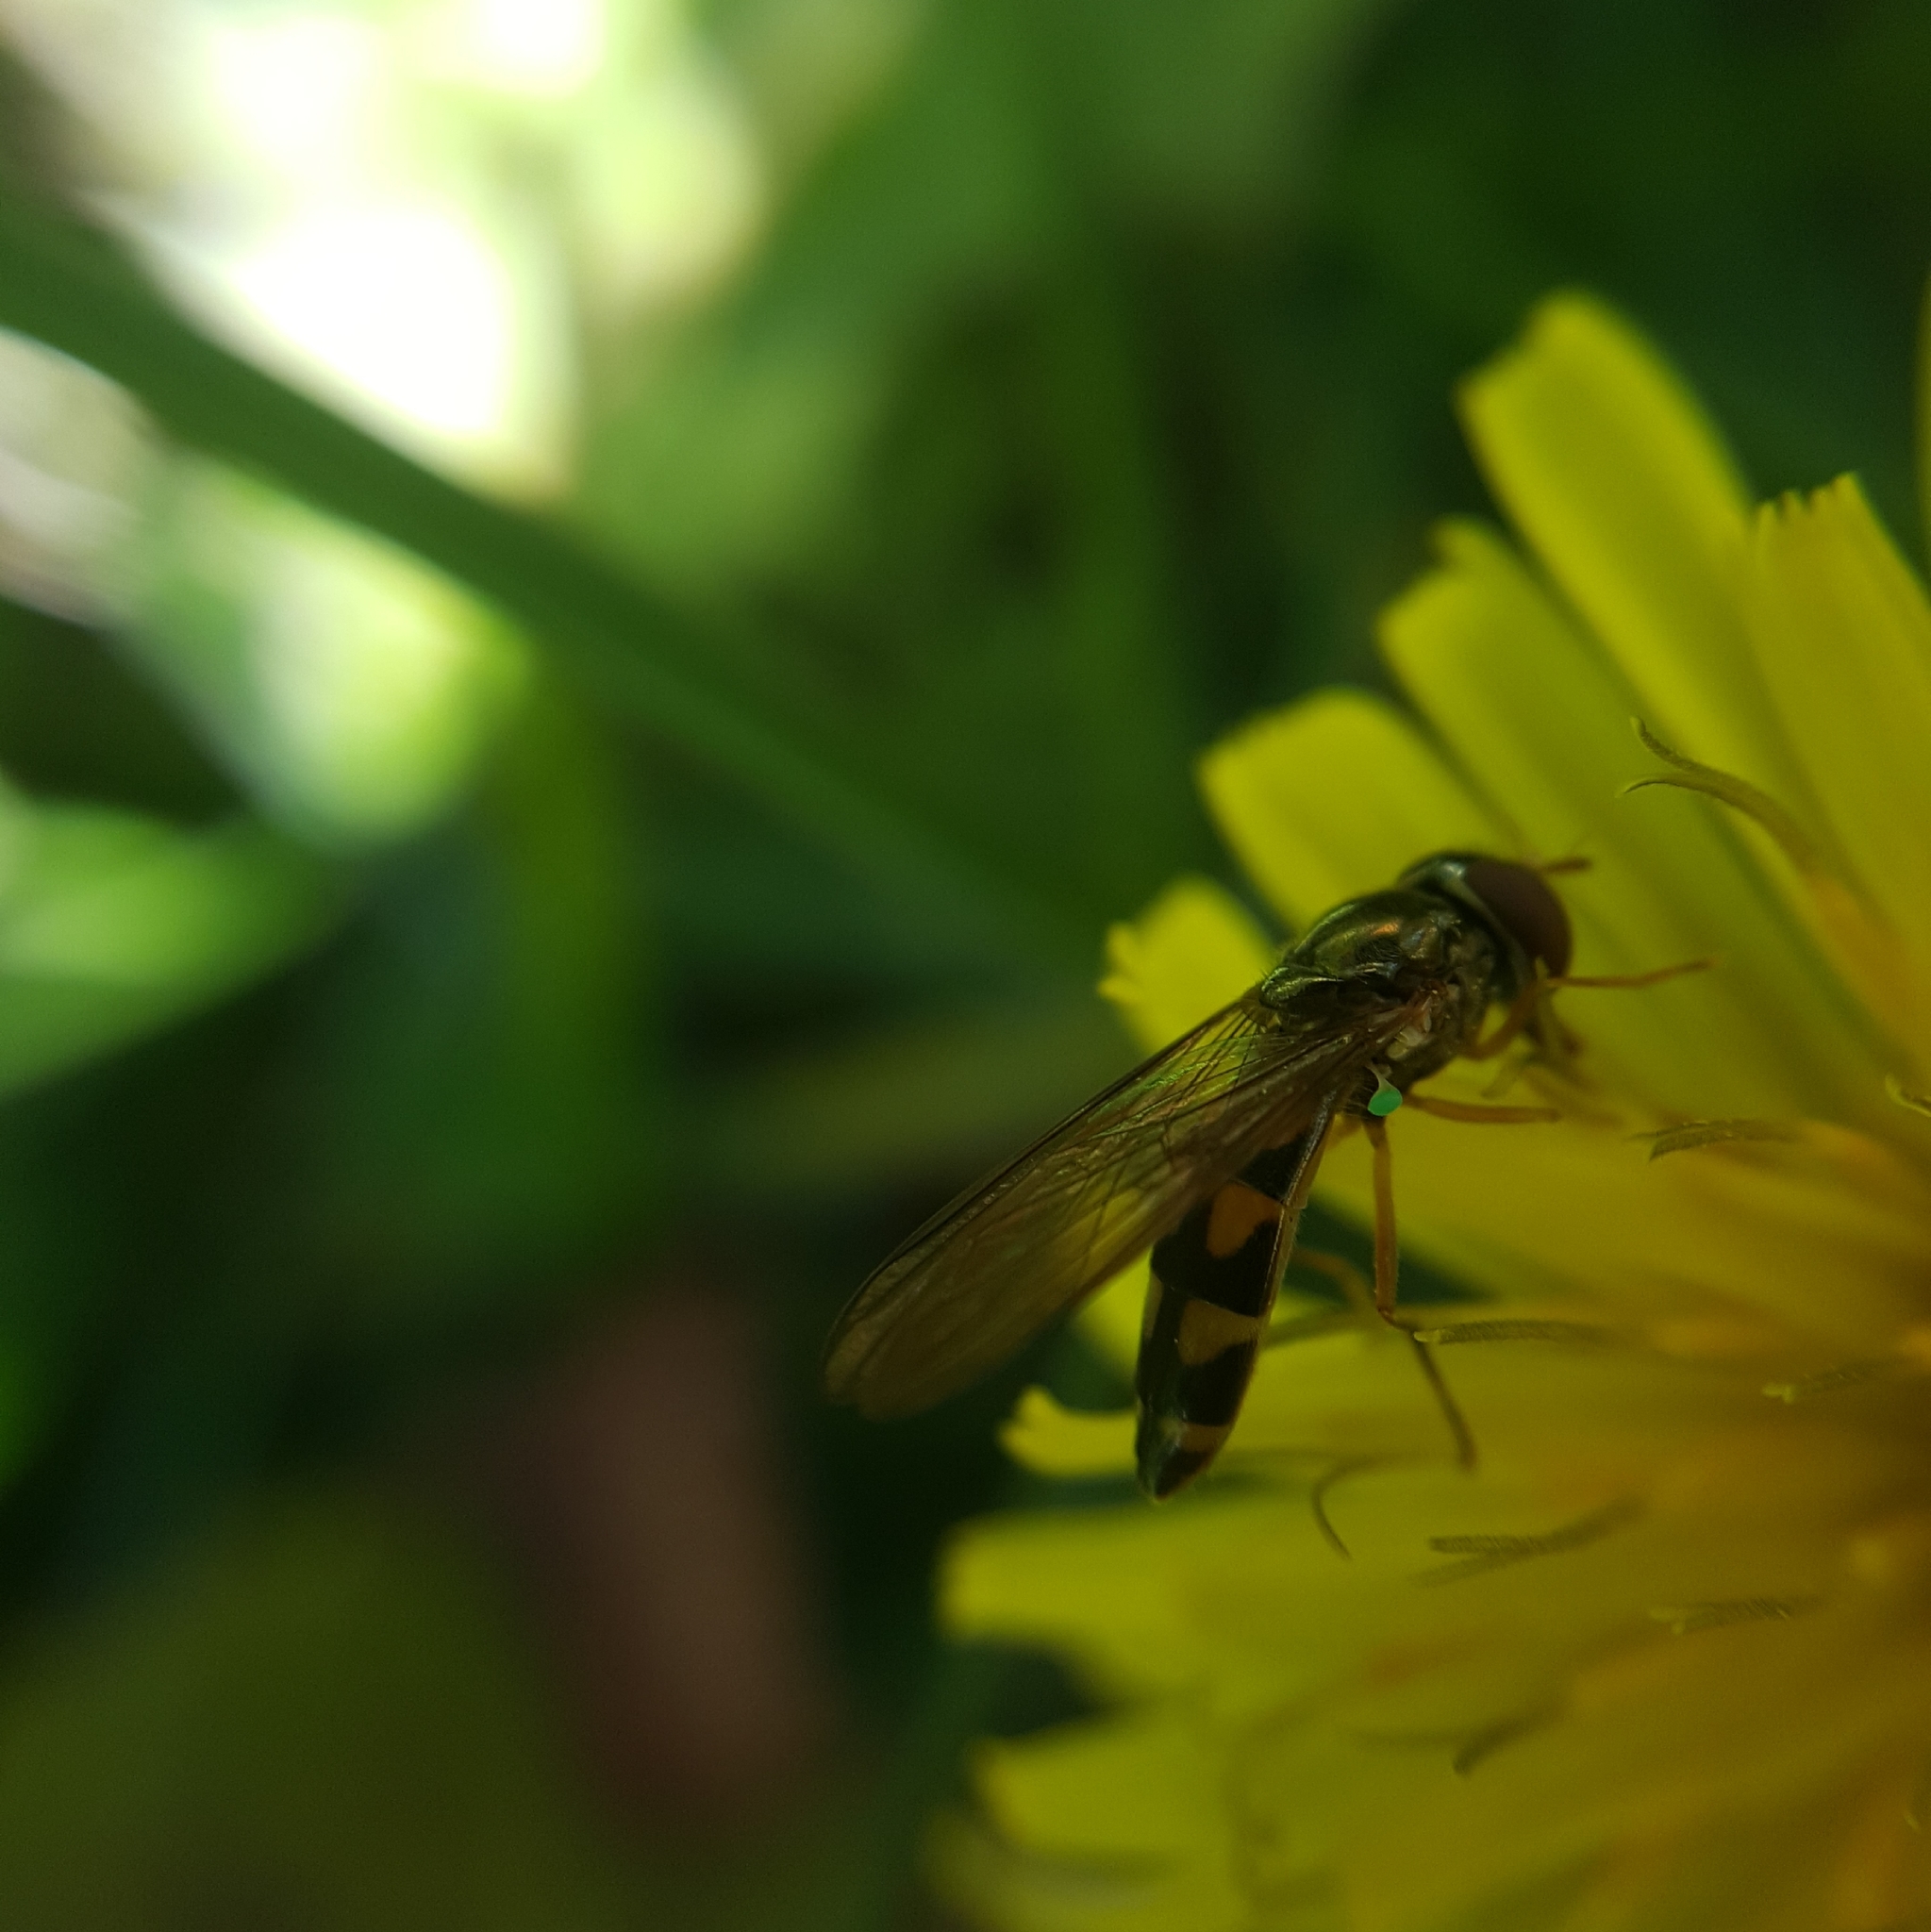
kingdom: Animalia
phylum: Arthropoda
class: Insecta
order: Diptera
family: Syrphidae
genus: Melanostoma
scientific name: Melanostoma mellina
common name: Hover fly
